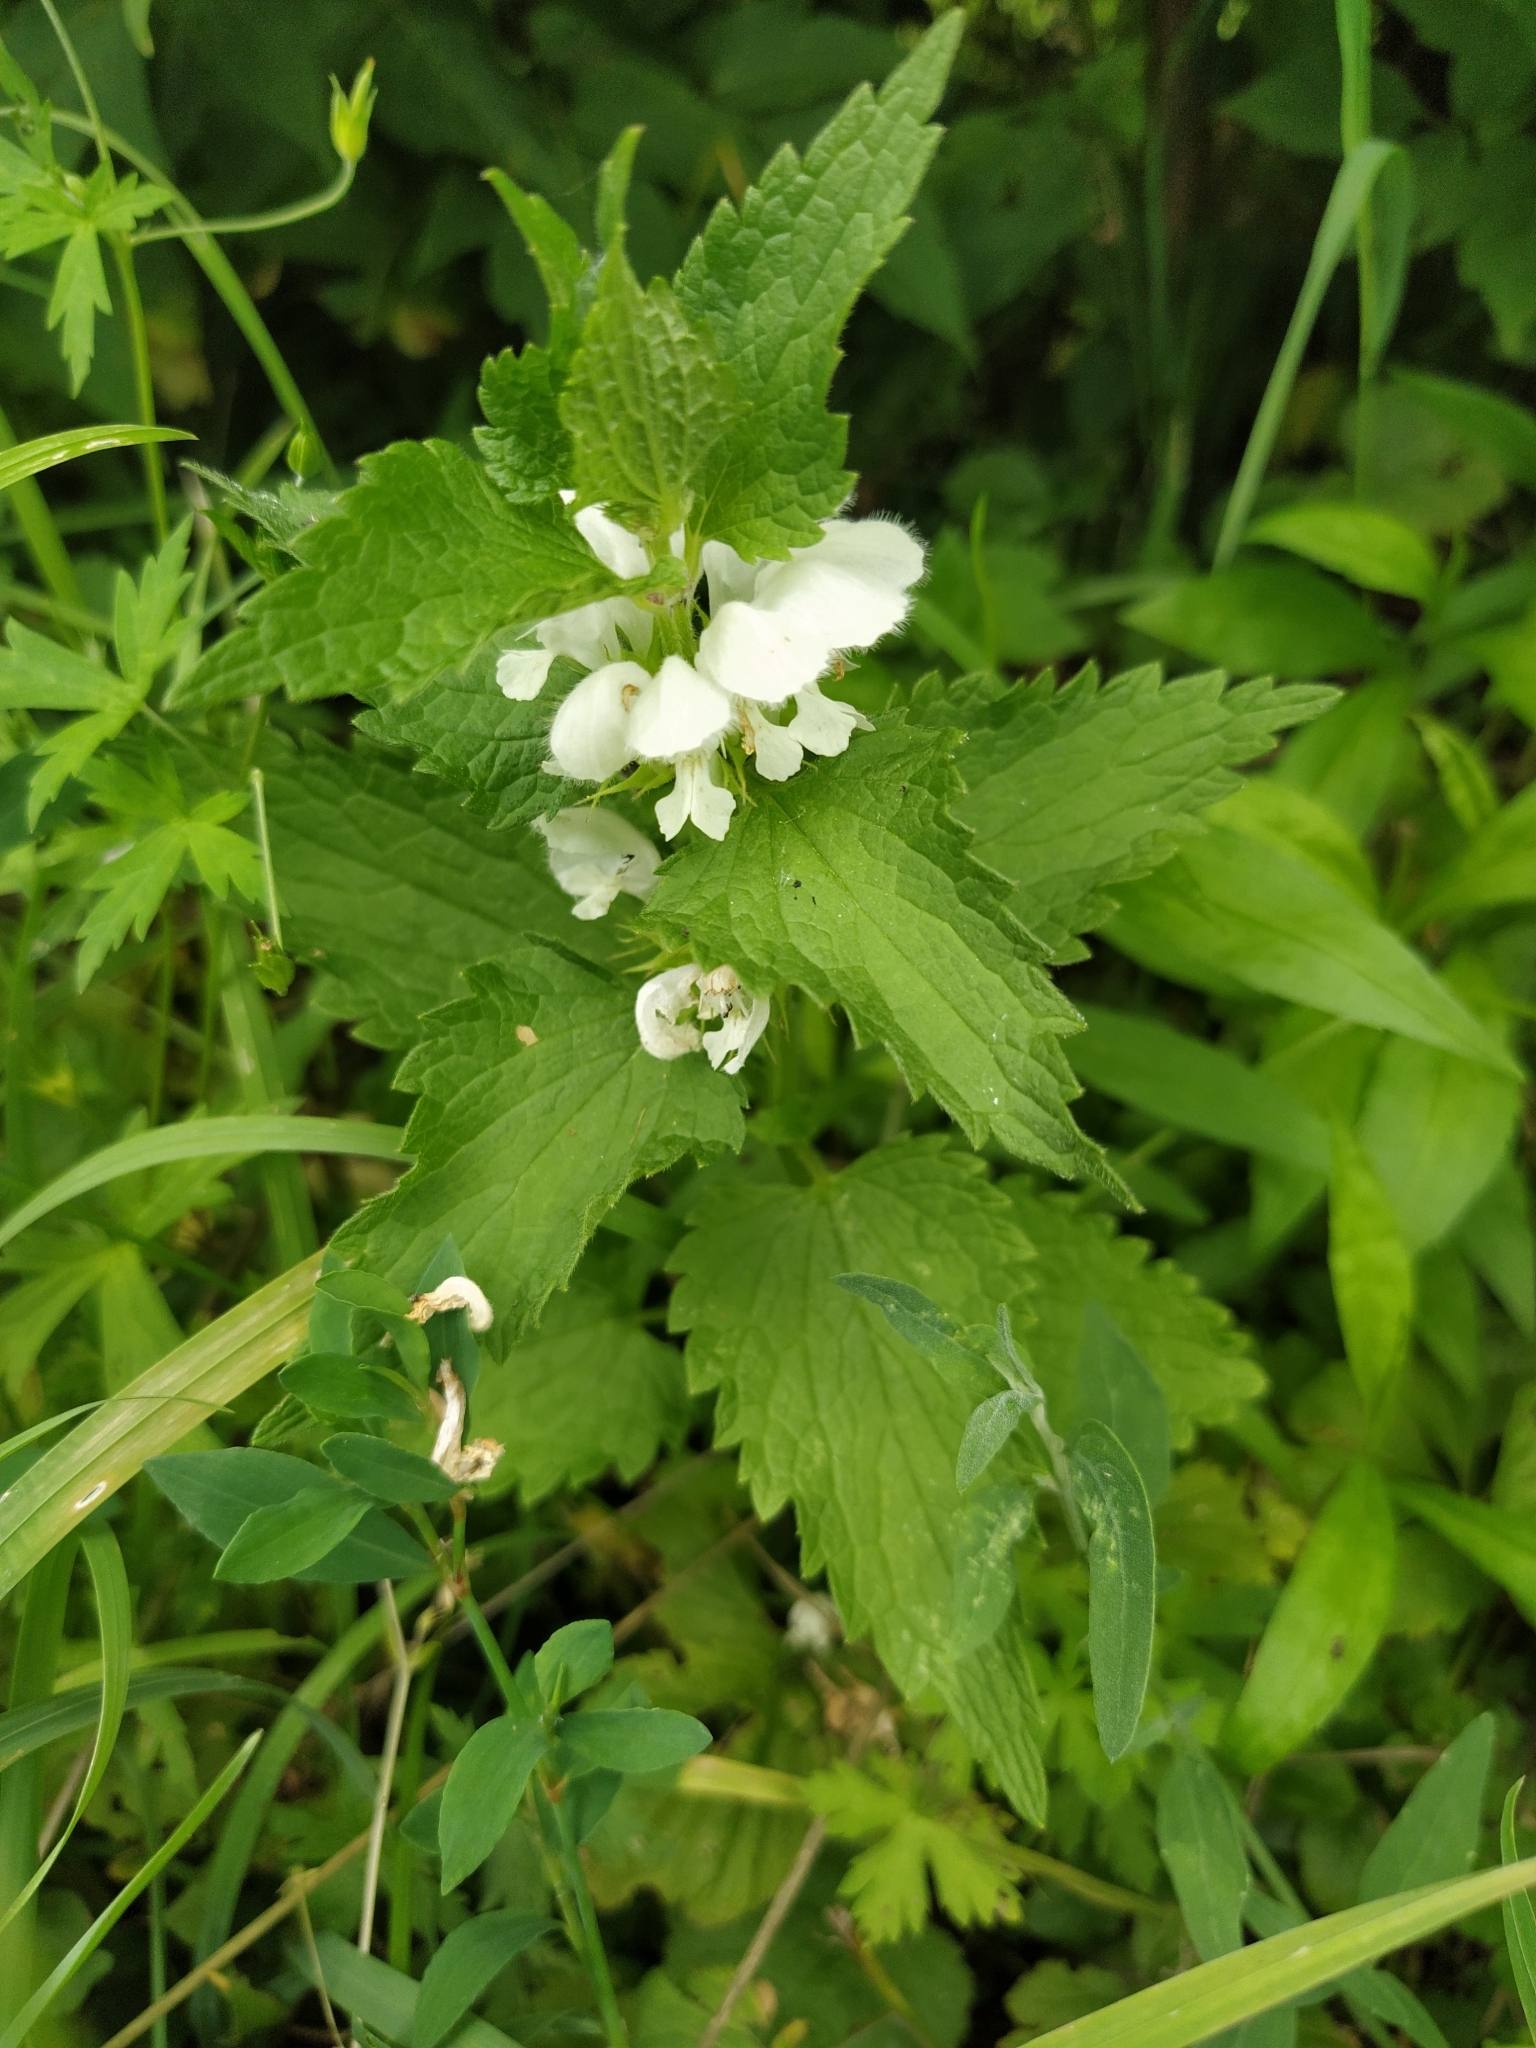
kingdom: Plantae
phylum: Tracheophyta
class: Magnoliopsida
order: Lamiales
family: Lamiaceae
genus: Lamium
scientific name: Lamium album
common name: White dead-nettle
